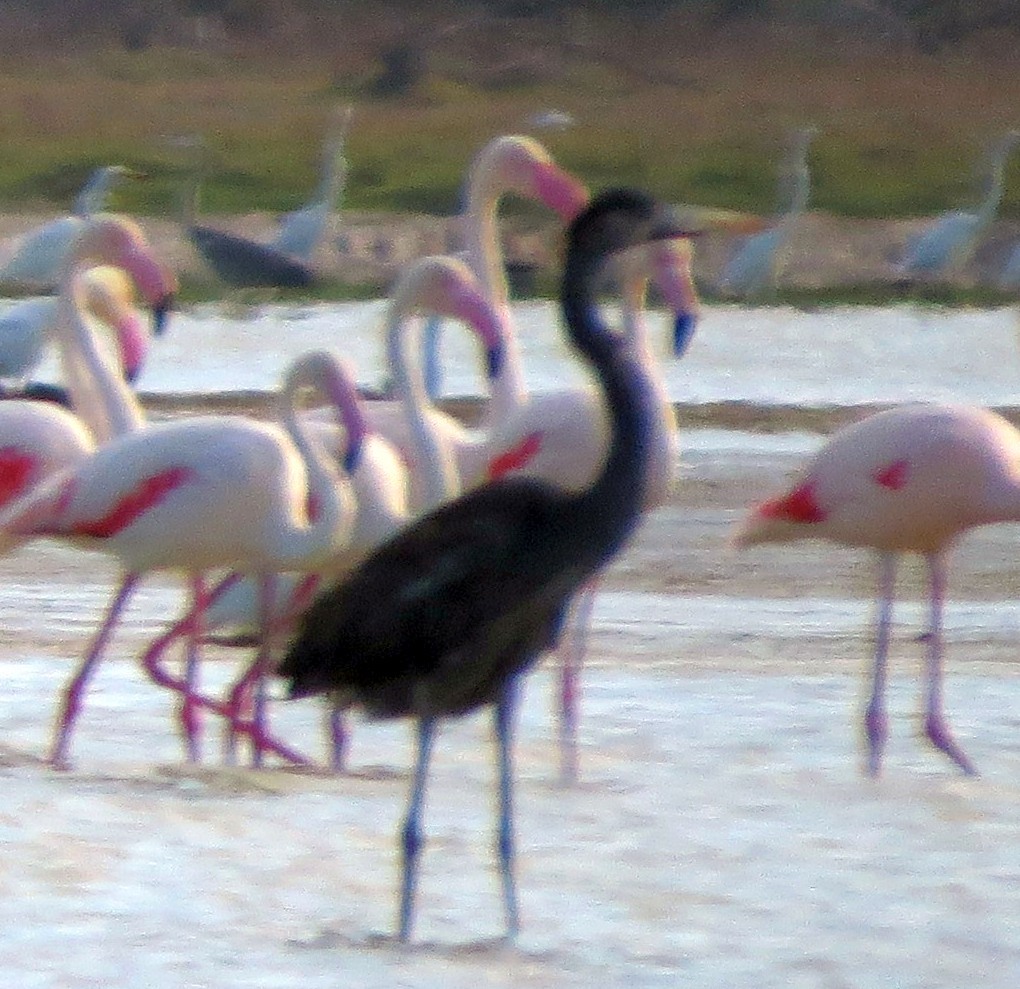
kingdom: Animalia
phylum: Chordata
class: Aves
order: Pelecaniformes
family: Ardeidae
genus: Ardea
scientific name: Ardea humbloti
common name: Humblot's heron
